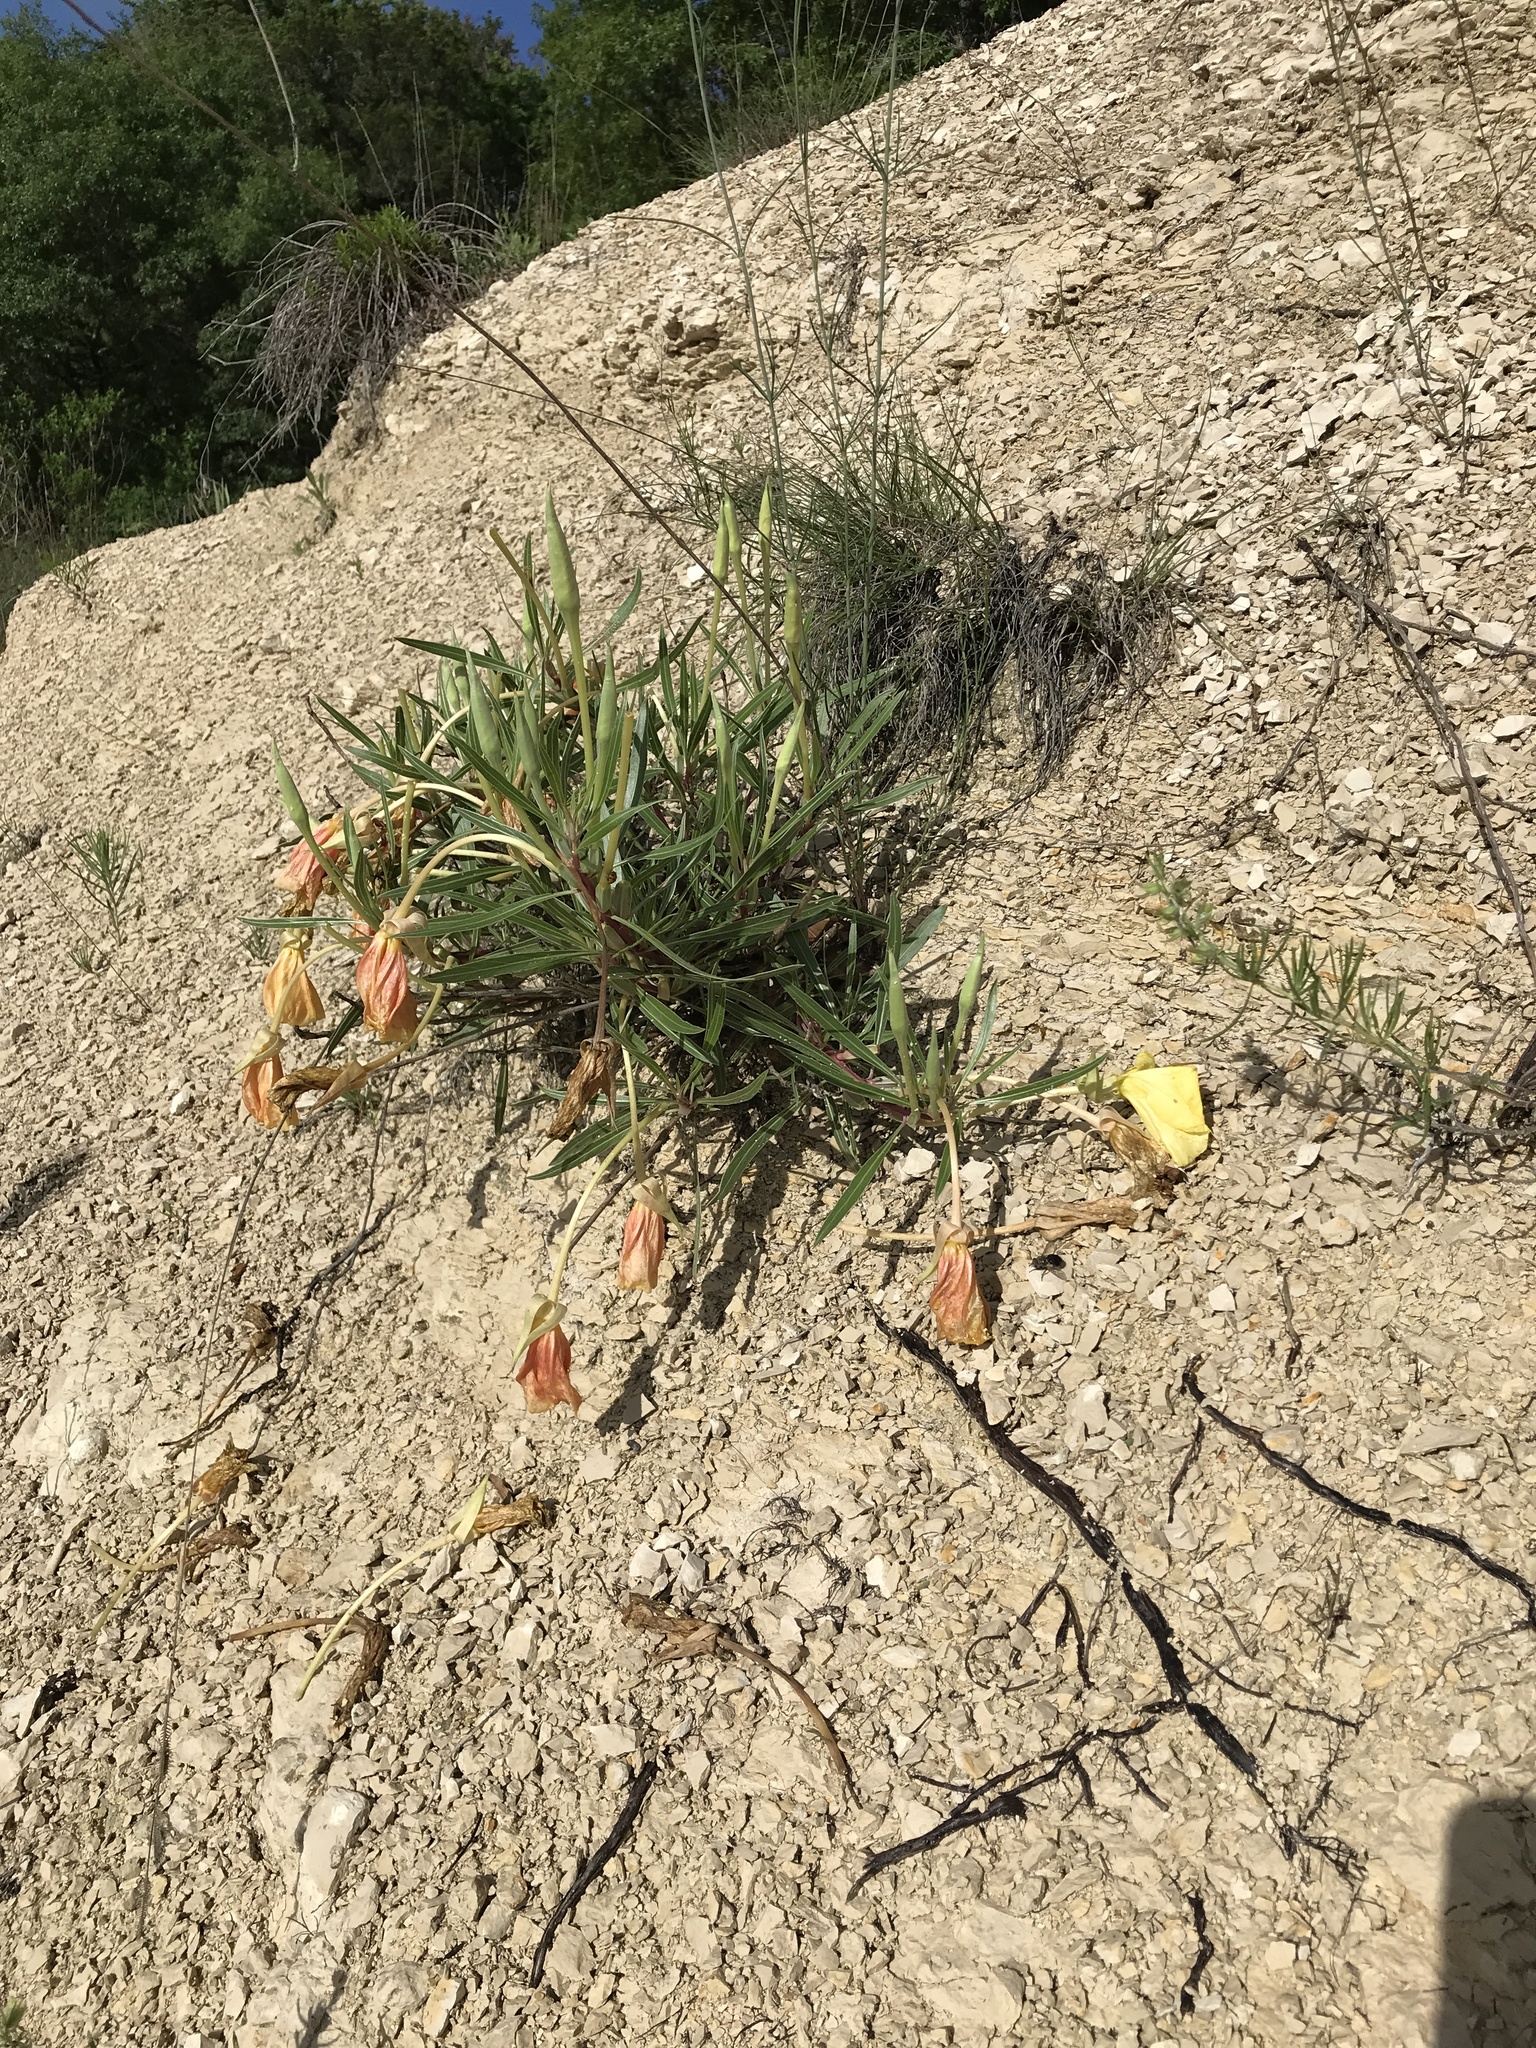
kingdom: Plantae
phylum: Tracheophyta
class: Magnoliopsida
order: Myrtales
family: Onagraceae
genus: Oenothera
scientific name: Oenothera macrocarpa
